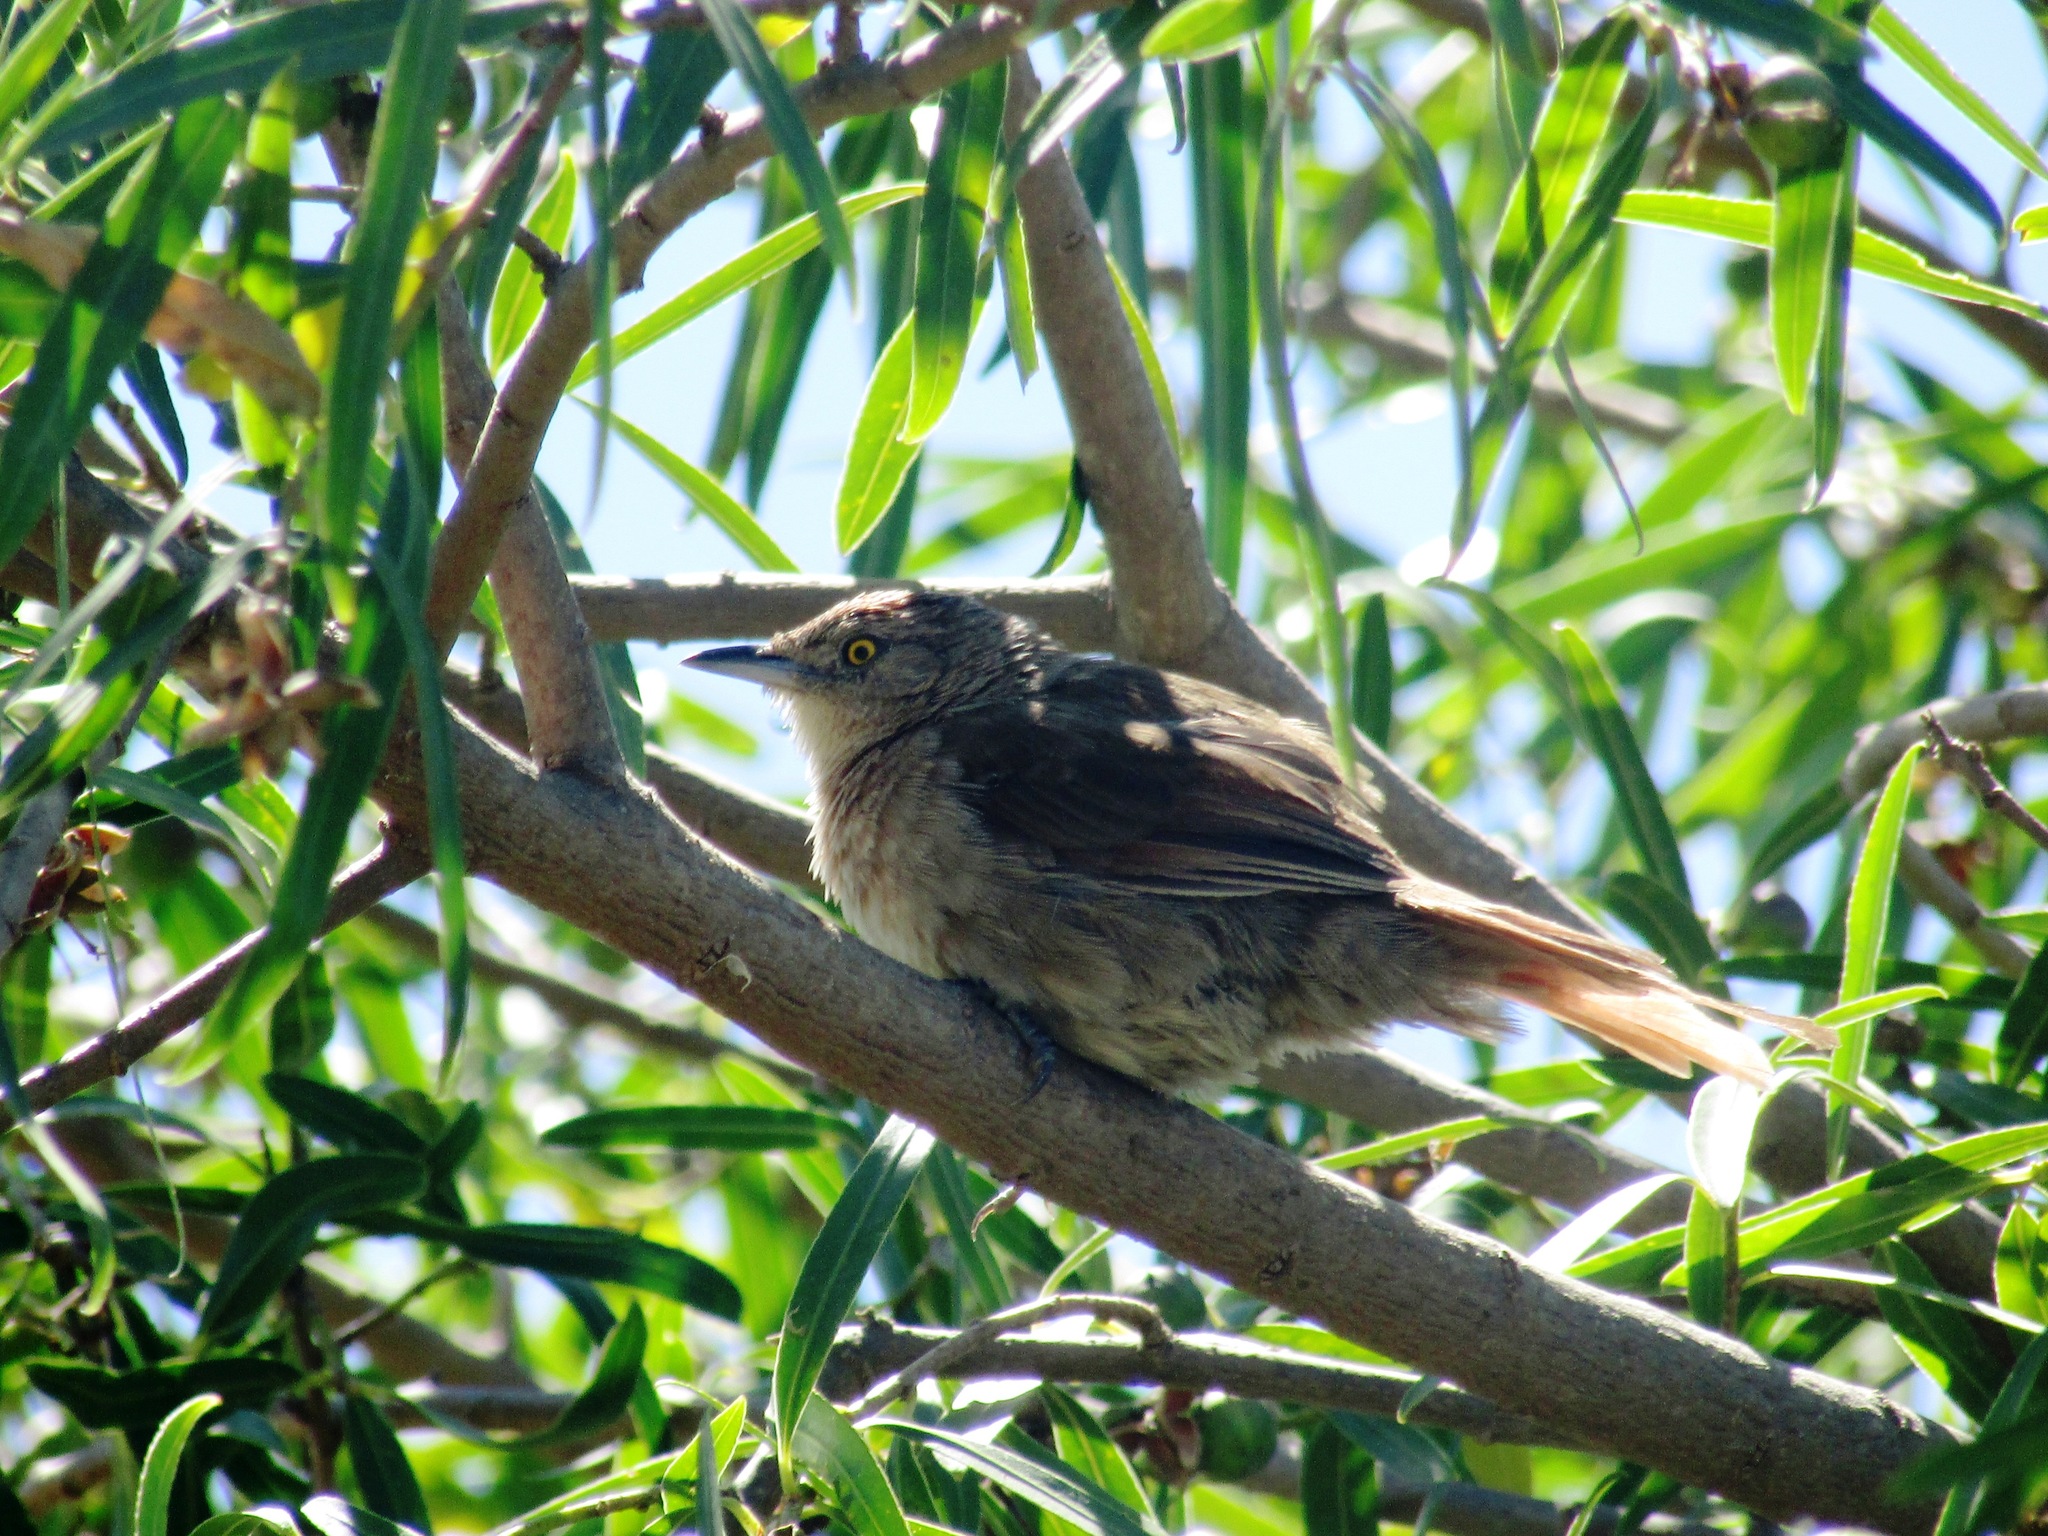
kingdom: Animalia
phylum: Chordata
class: Aves
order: Passeriformes
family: Furnariidae
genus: Phacellodomus
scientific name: Phacellodomus striaticollis
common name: Freckle-breasted thornbird
